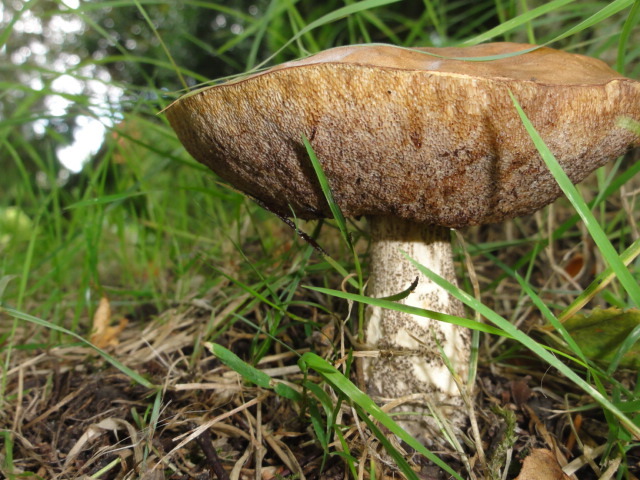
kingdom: Fungi
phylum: Basidiomycota
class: Agaricomycetes
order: Boletales
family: Boletaceae
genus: Leccinum
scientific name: Leccinum scabrum
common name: Blushing bolete
